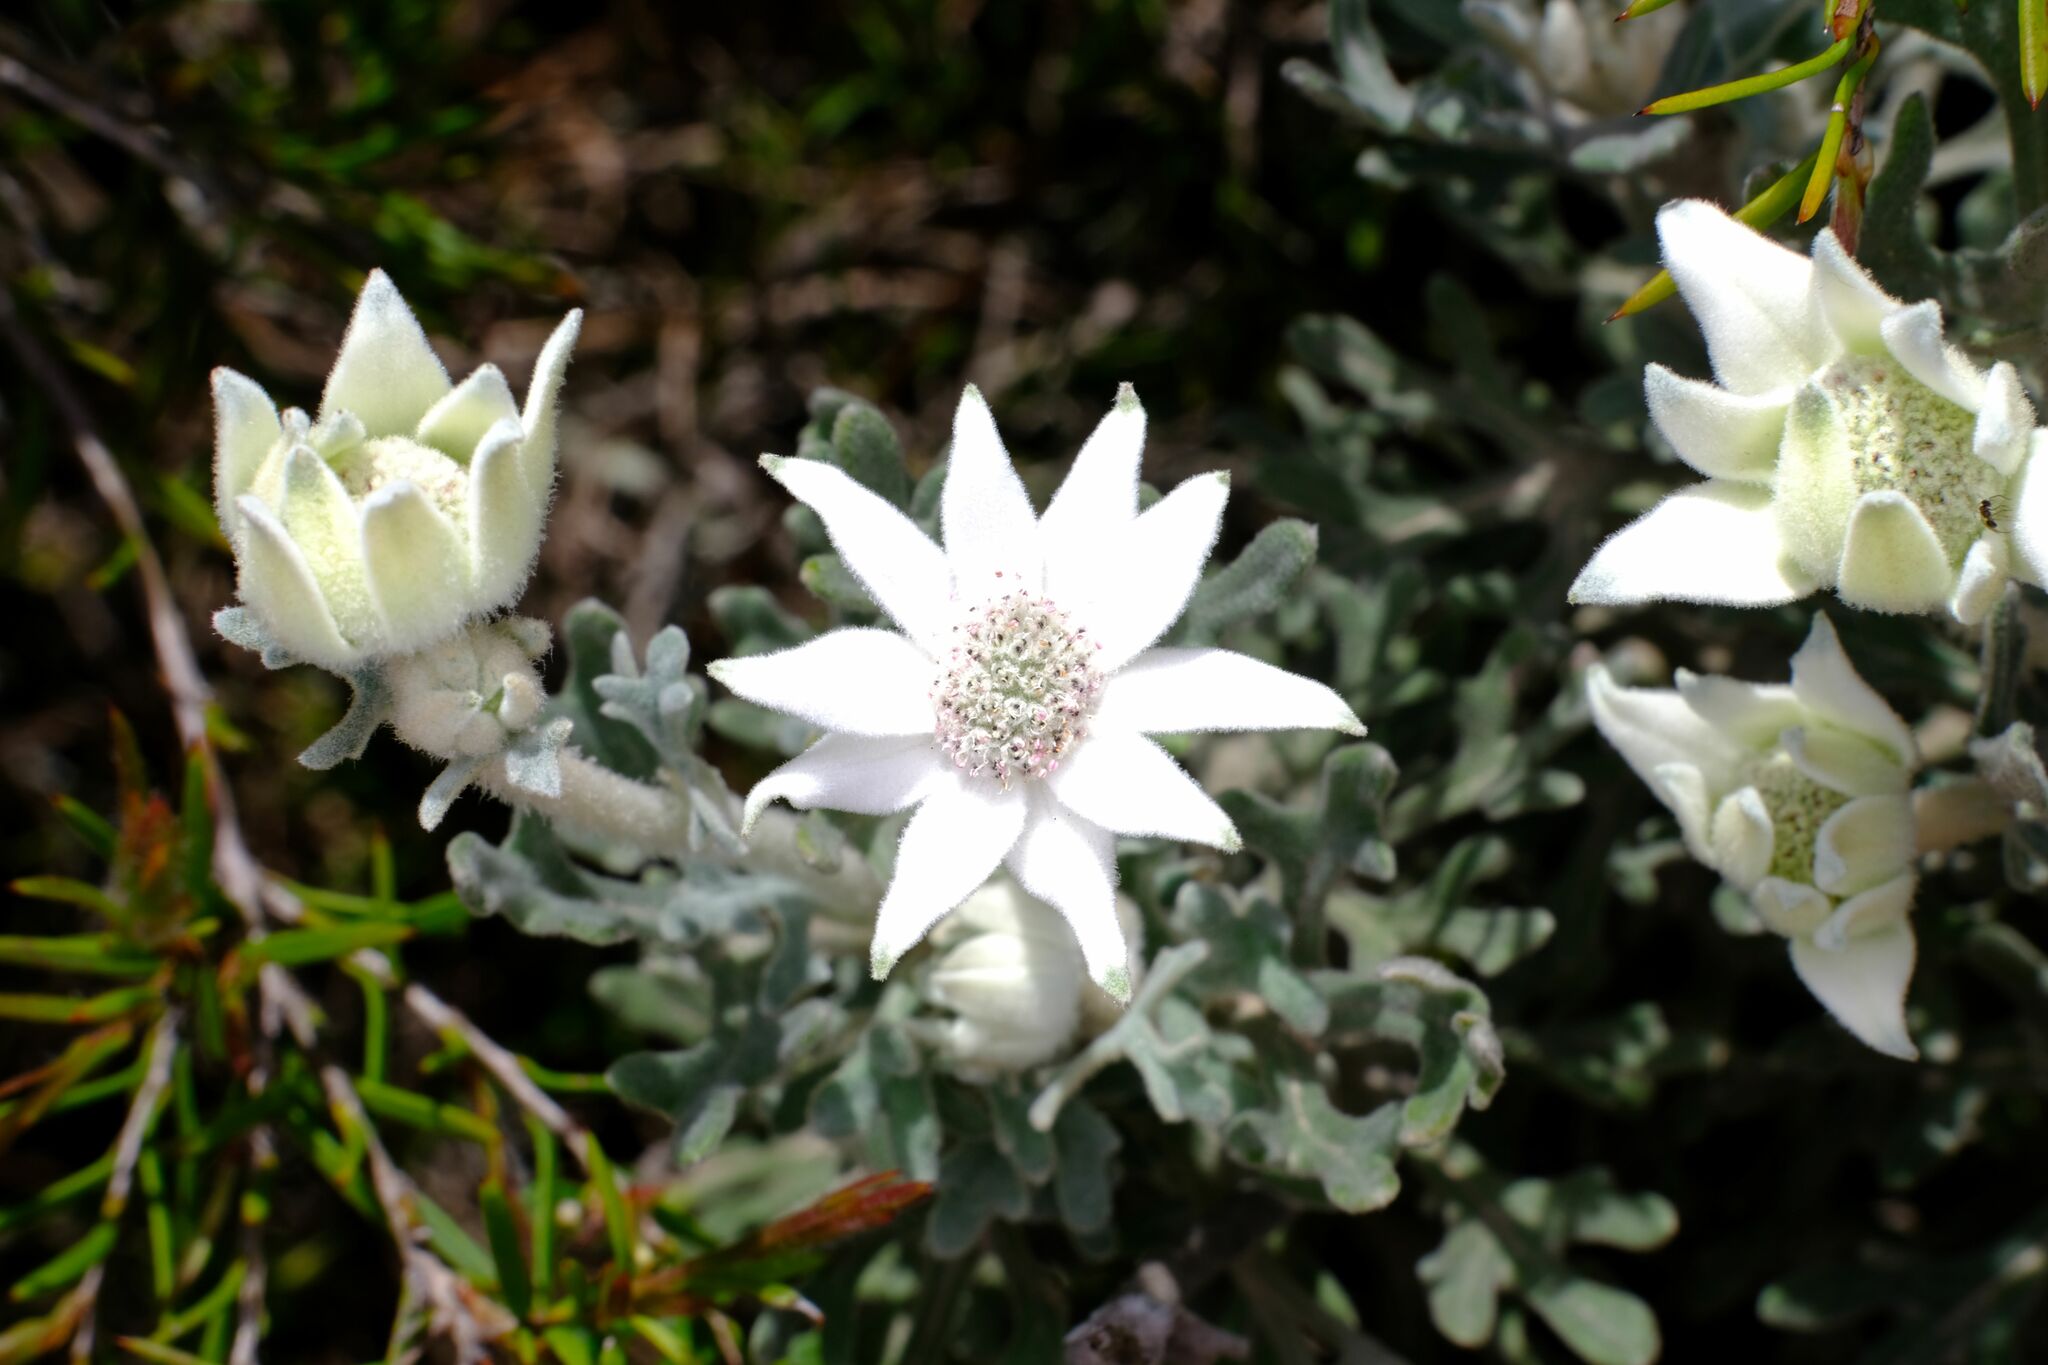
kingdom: Plantae
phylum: Tracheophyta
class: Magnoliopsida
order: Apiales
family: Apiaceae
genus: Actinotus
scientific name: Actinotus helianthi
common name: Flannel-flower
